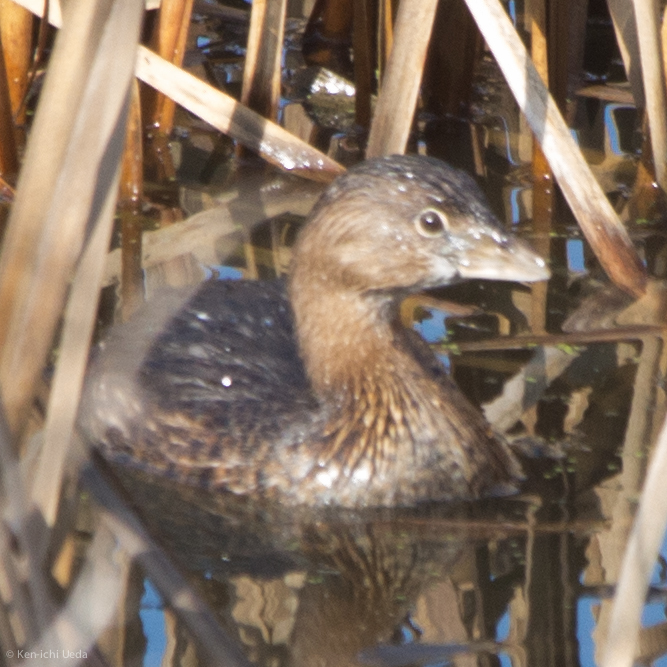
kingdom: Animalia
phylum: Chordata
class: Aves
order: Podicipediformes
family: Podicipedidae
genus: Podilymbus
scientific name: Podilymbus podiceps
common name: Pied-billed grebe
